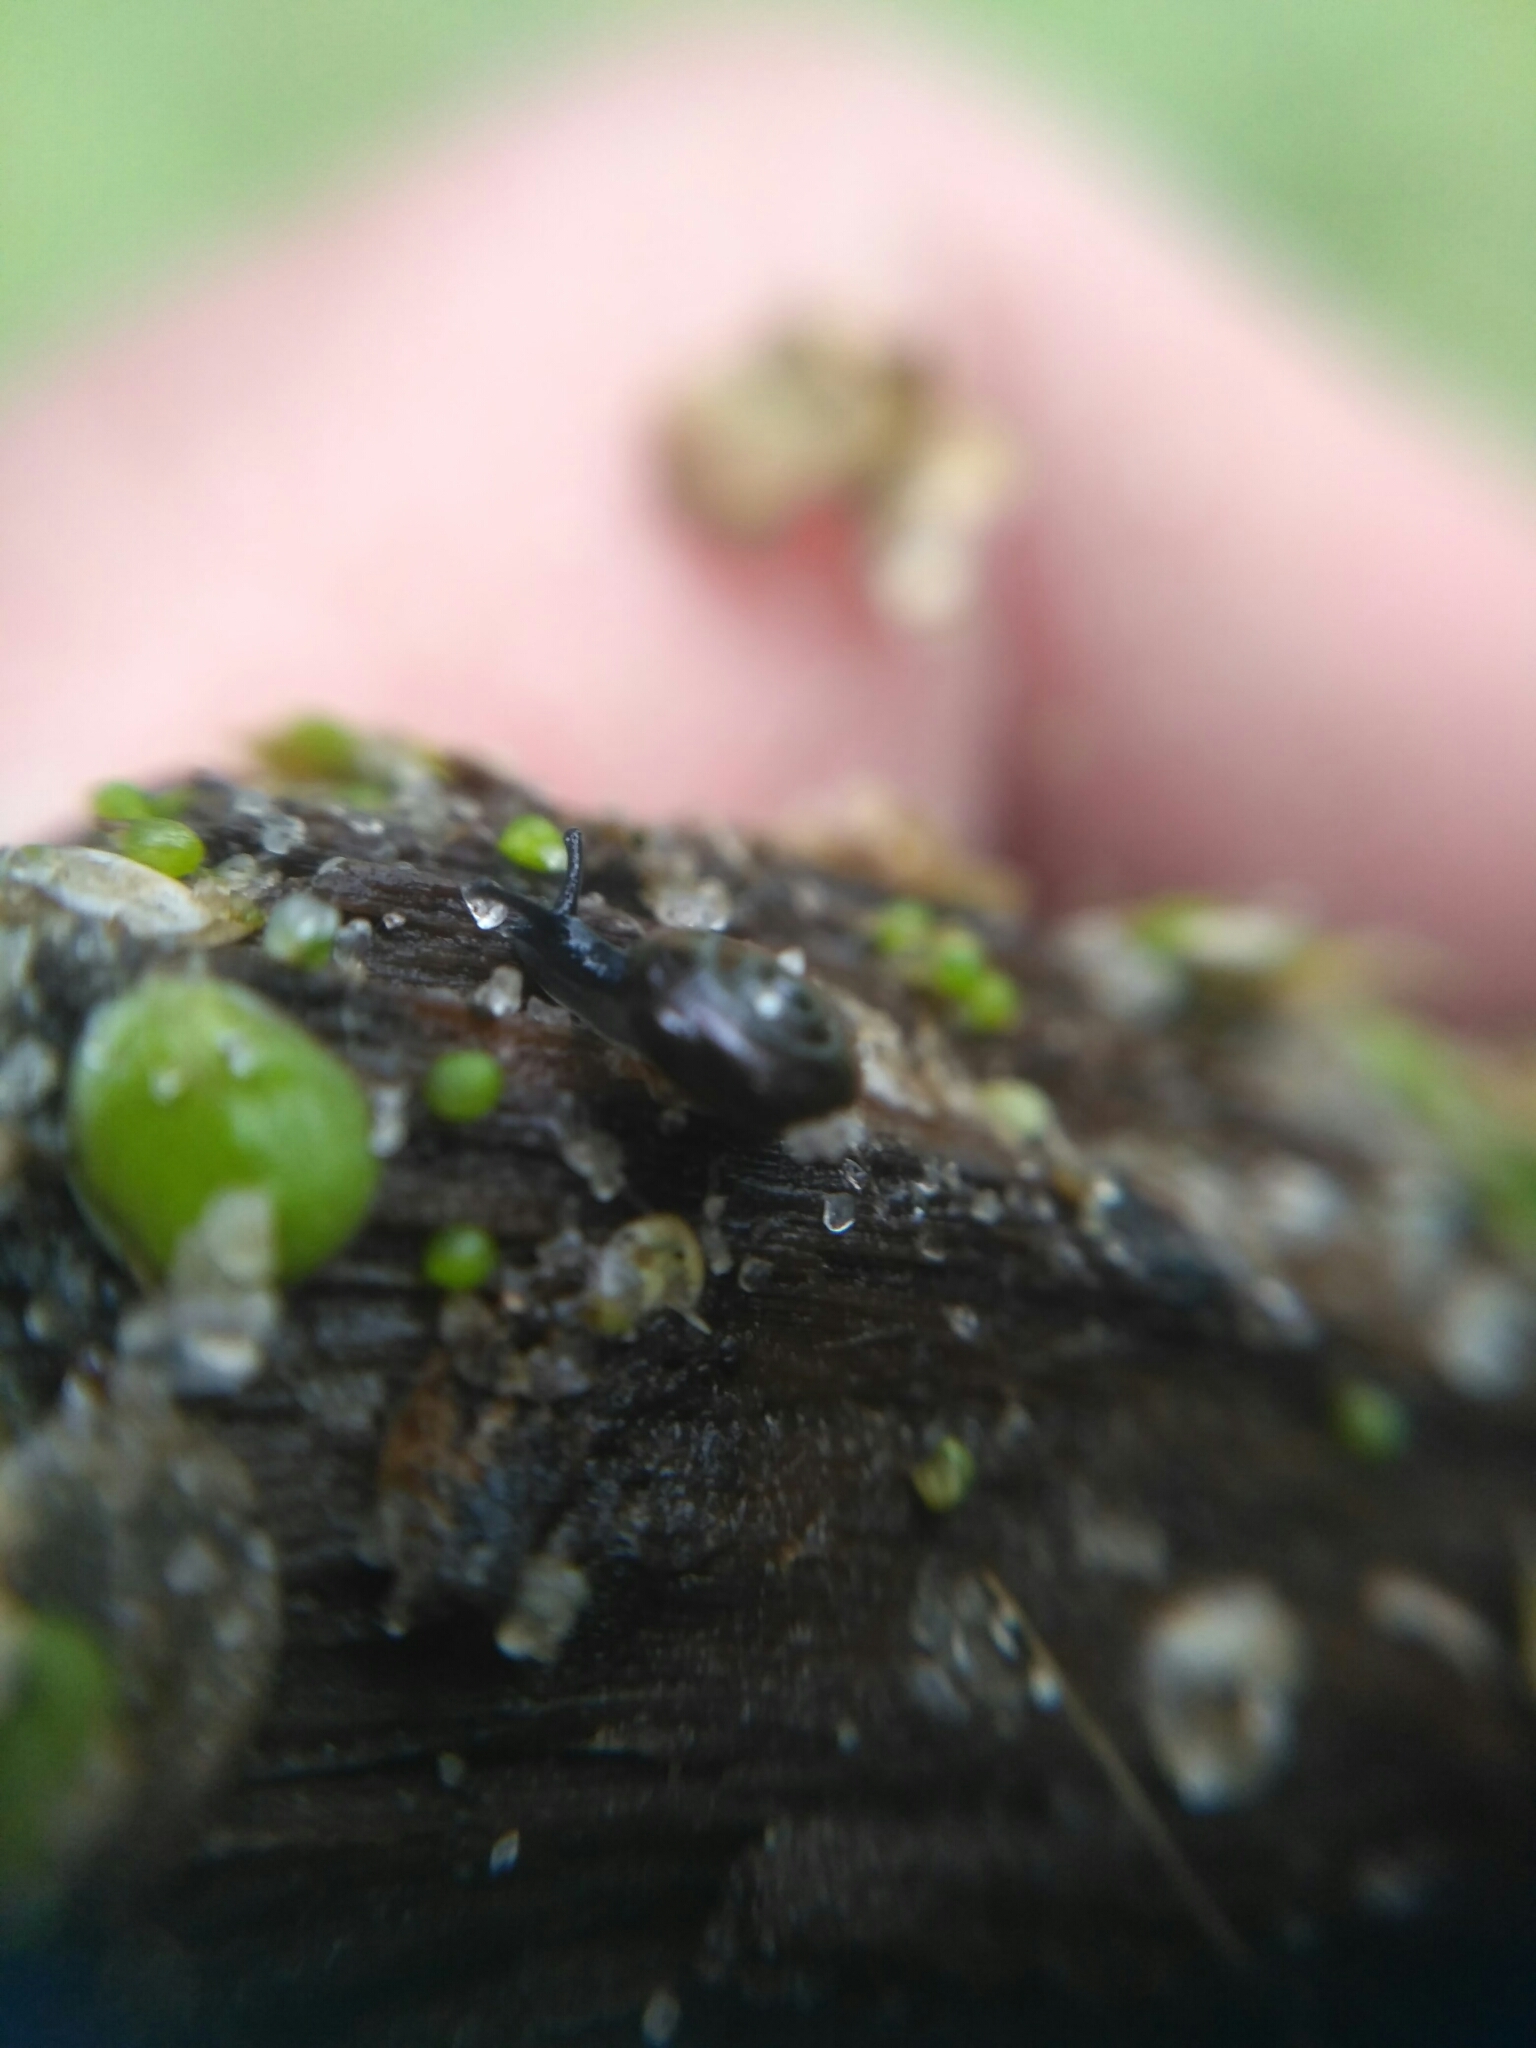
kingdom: Animalia
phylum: Mollusca
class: Gastropoda
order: Stylommatophora
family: Gastrodontidae
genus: Zonitoides
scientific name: Zonitoides nitidus
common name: Shiny glass snail
